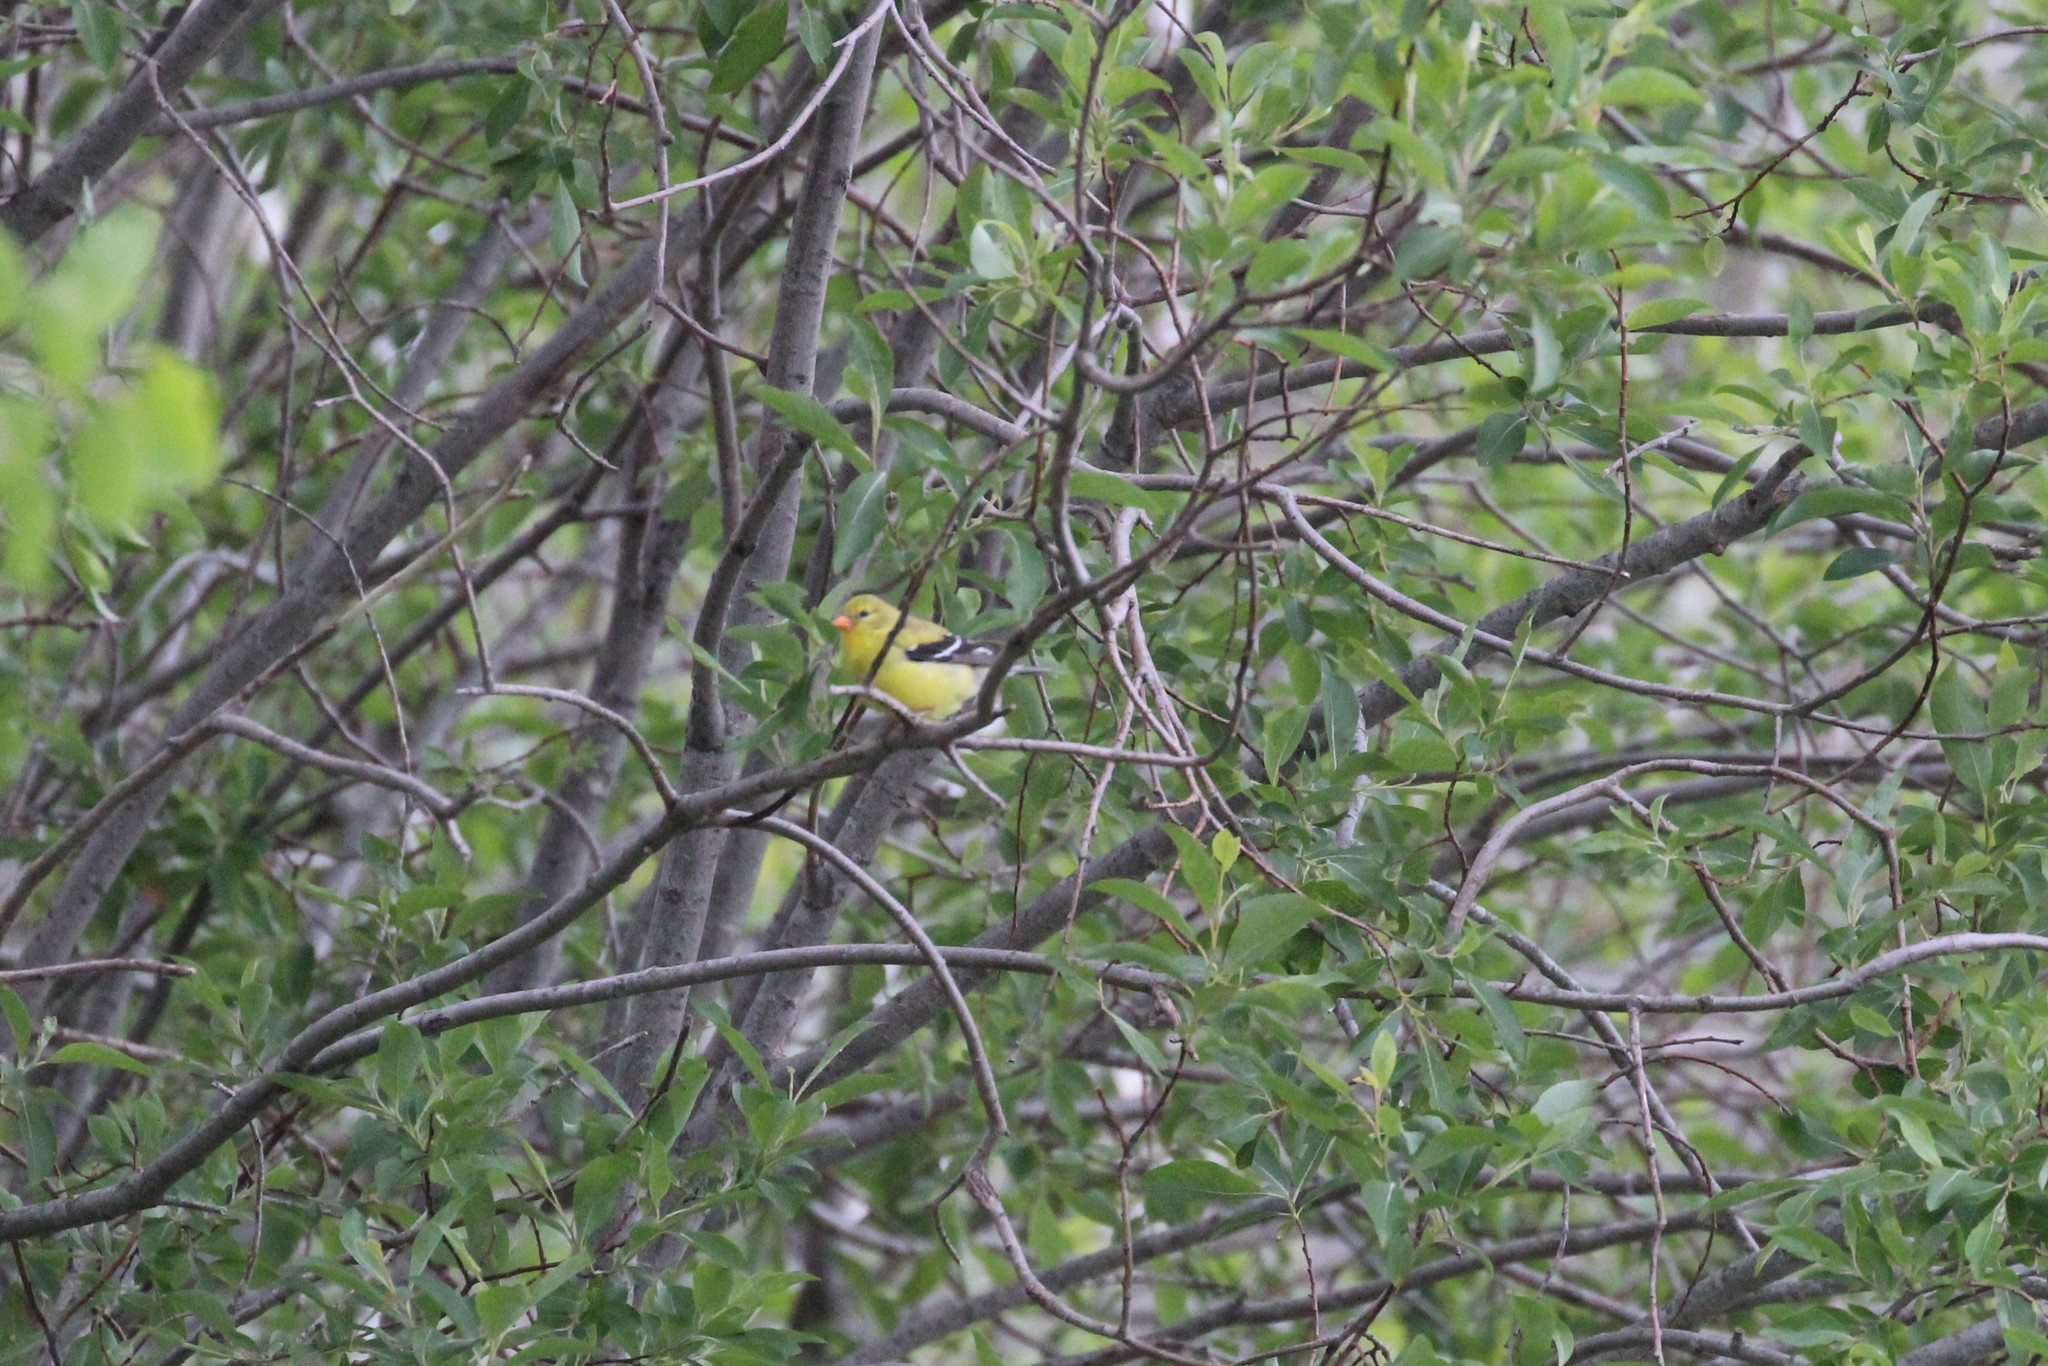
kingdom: Animalia
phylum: Chordata
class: Aves
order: Passeriformes
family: Fringillidae
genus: Spinus
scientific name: Spinus tristis
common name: American goldfinch
